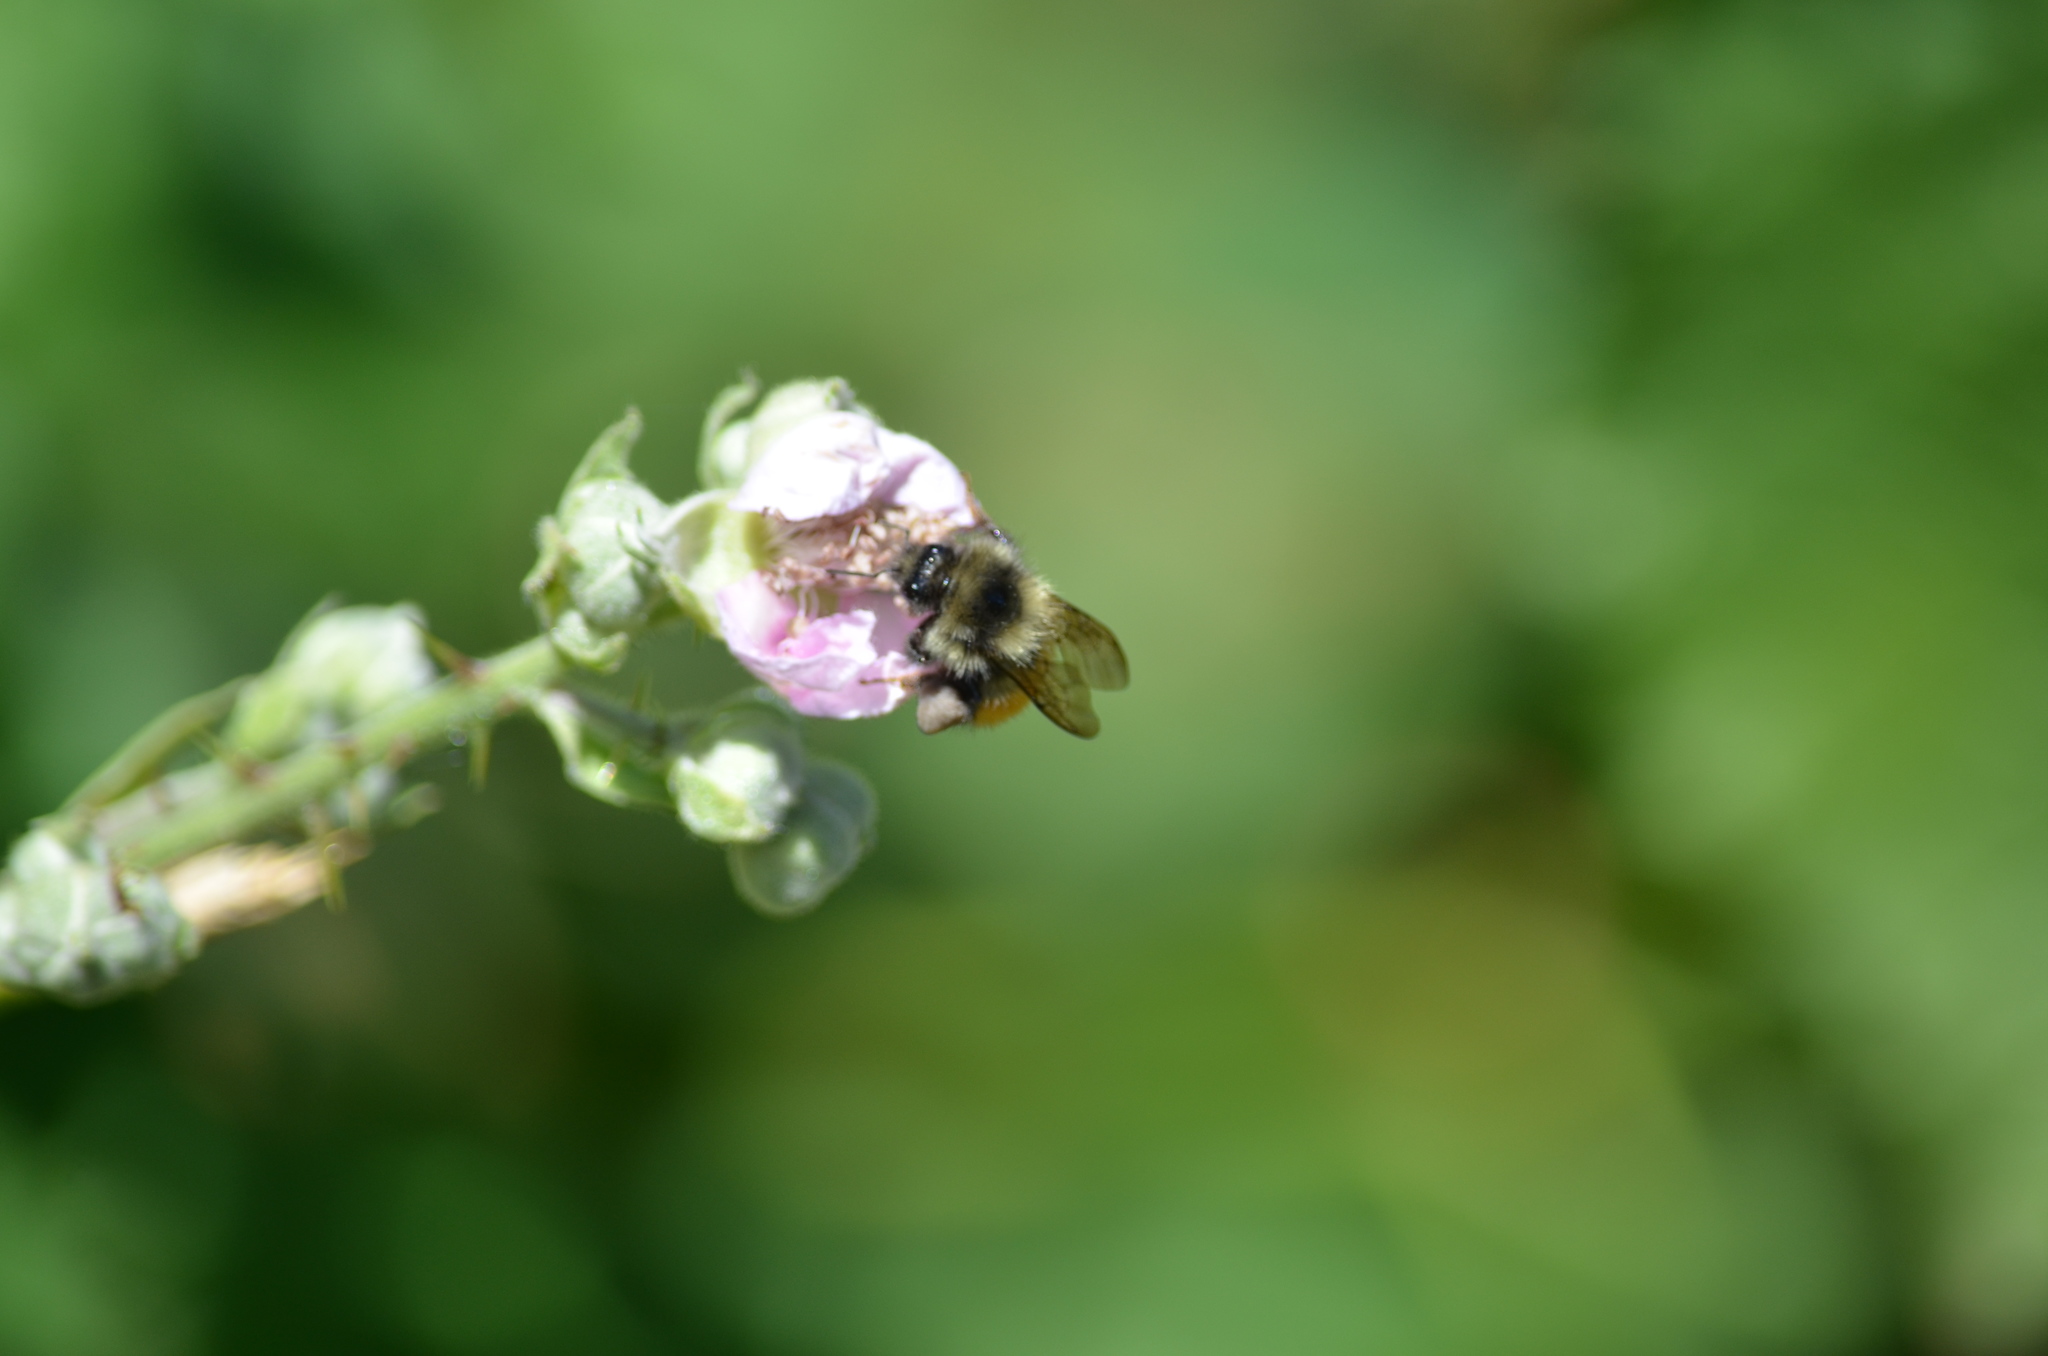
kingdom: Animalia
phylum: Arthropoda
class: Insecta
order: Hymenoptera
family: Apidae
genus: Bombus
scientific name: Bombus melanopygus
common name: Black tail bumble bee
